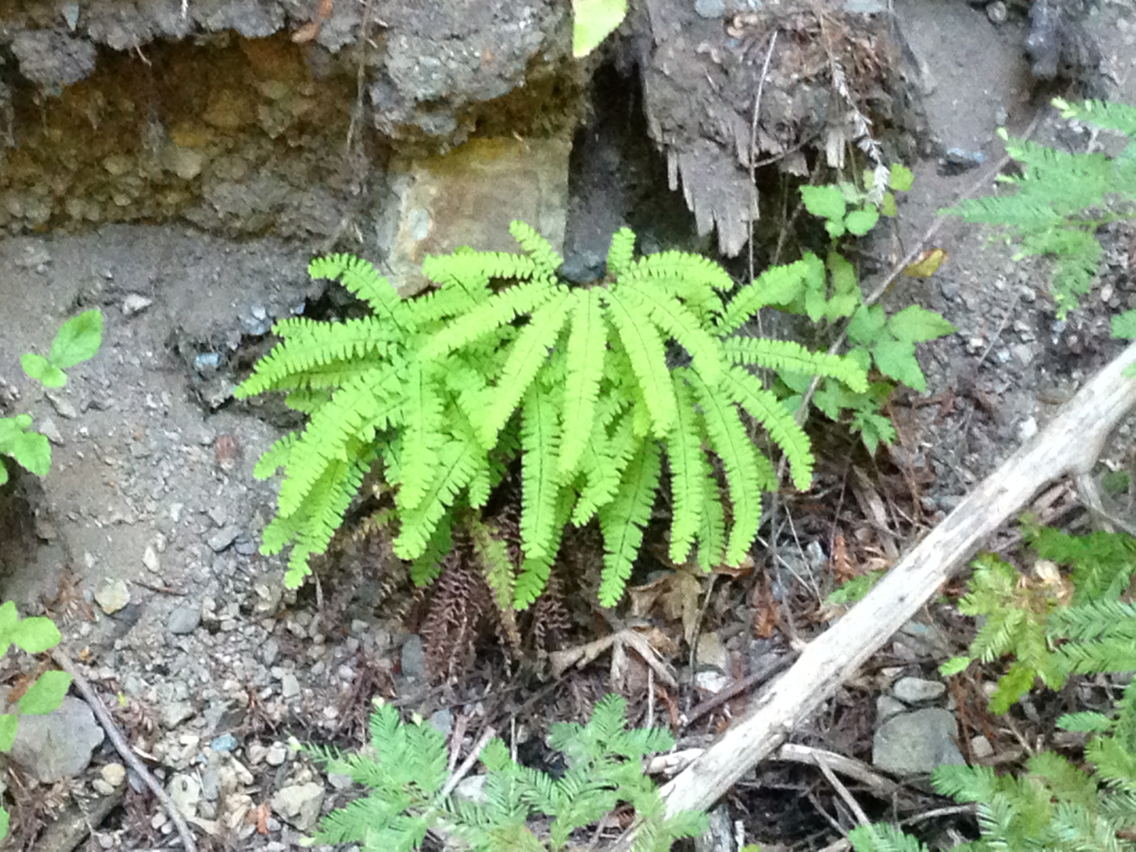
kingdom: Plantae
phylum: Tracheophyta
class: Polypodiopsida
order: Polypodiales
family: Pteridaceae
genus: Adiantum
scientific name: Adiantum aleuticum
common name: Aleutian maidenhair fern
